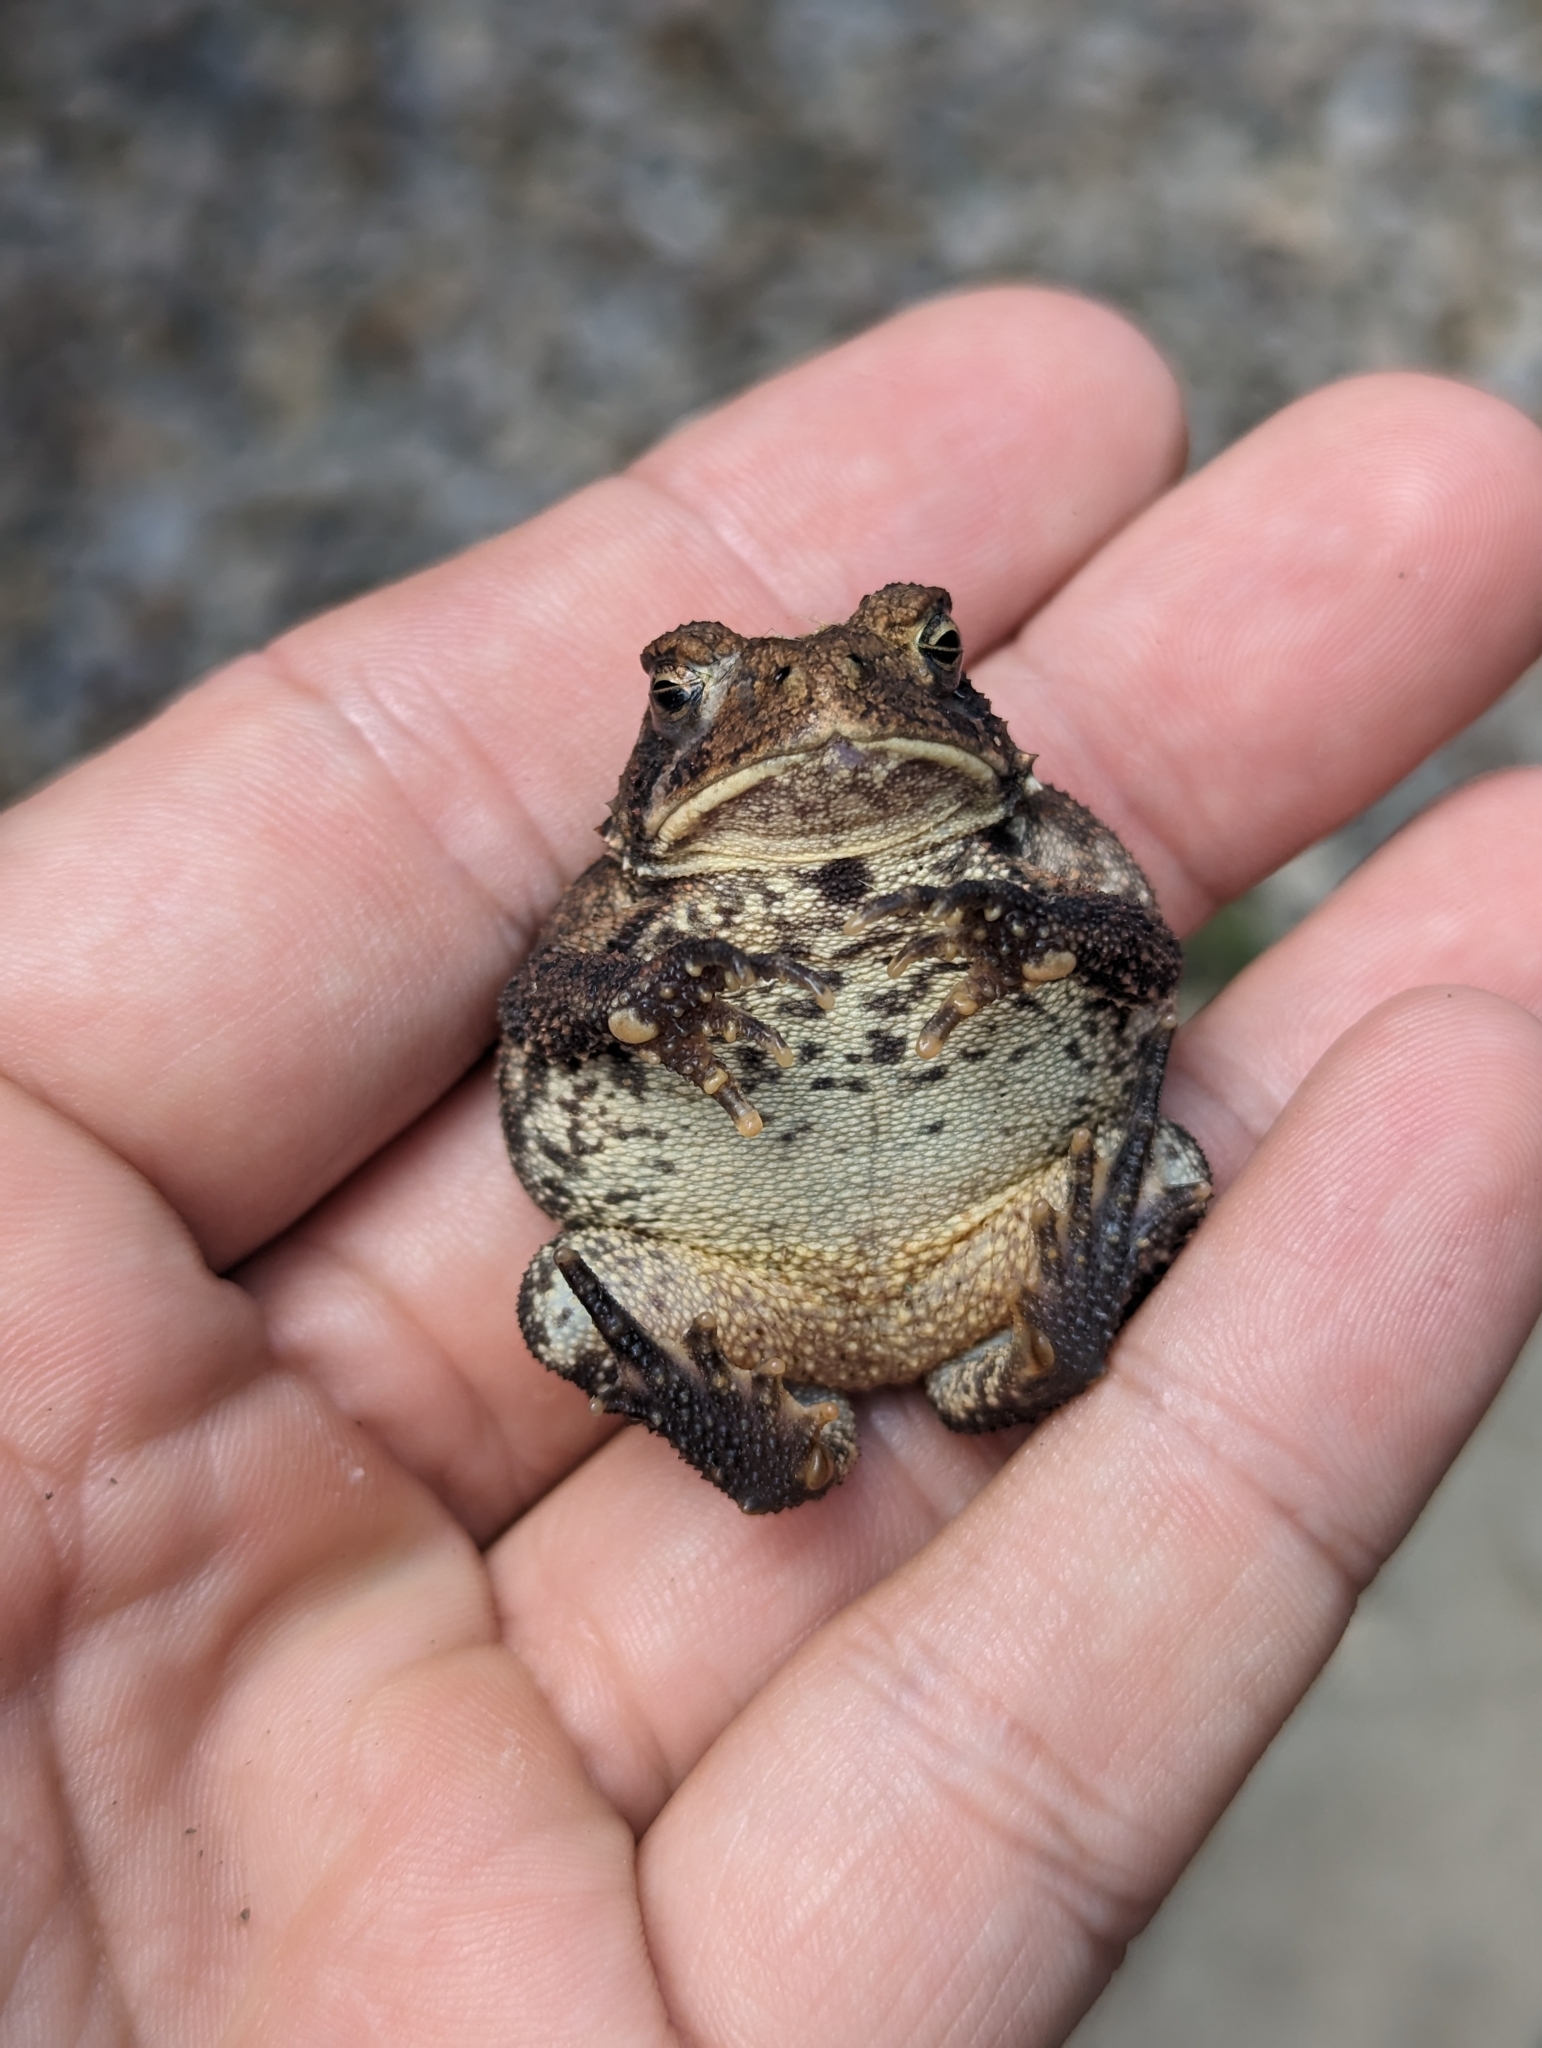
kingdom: Animalia
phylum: Chordata
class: Amphibia
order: Anura
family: Bufonidae
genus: Anaxyrus
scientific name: Anaxyrus americanus
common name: American toad
